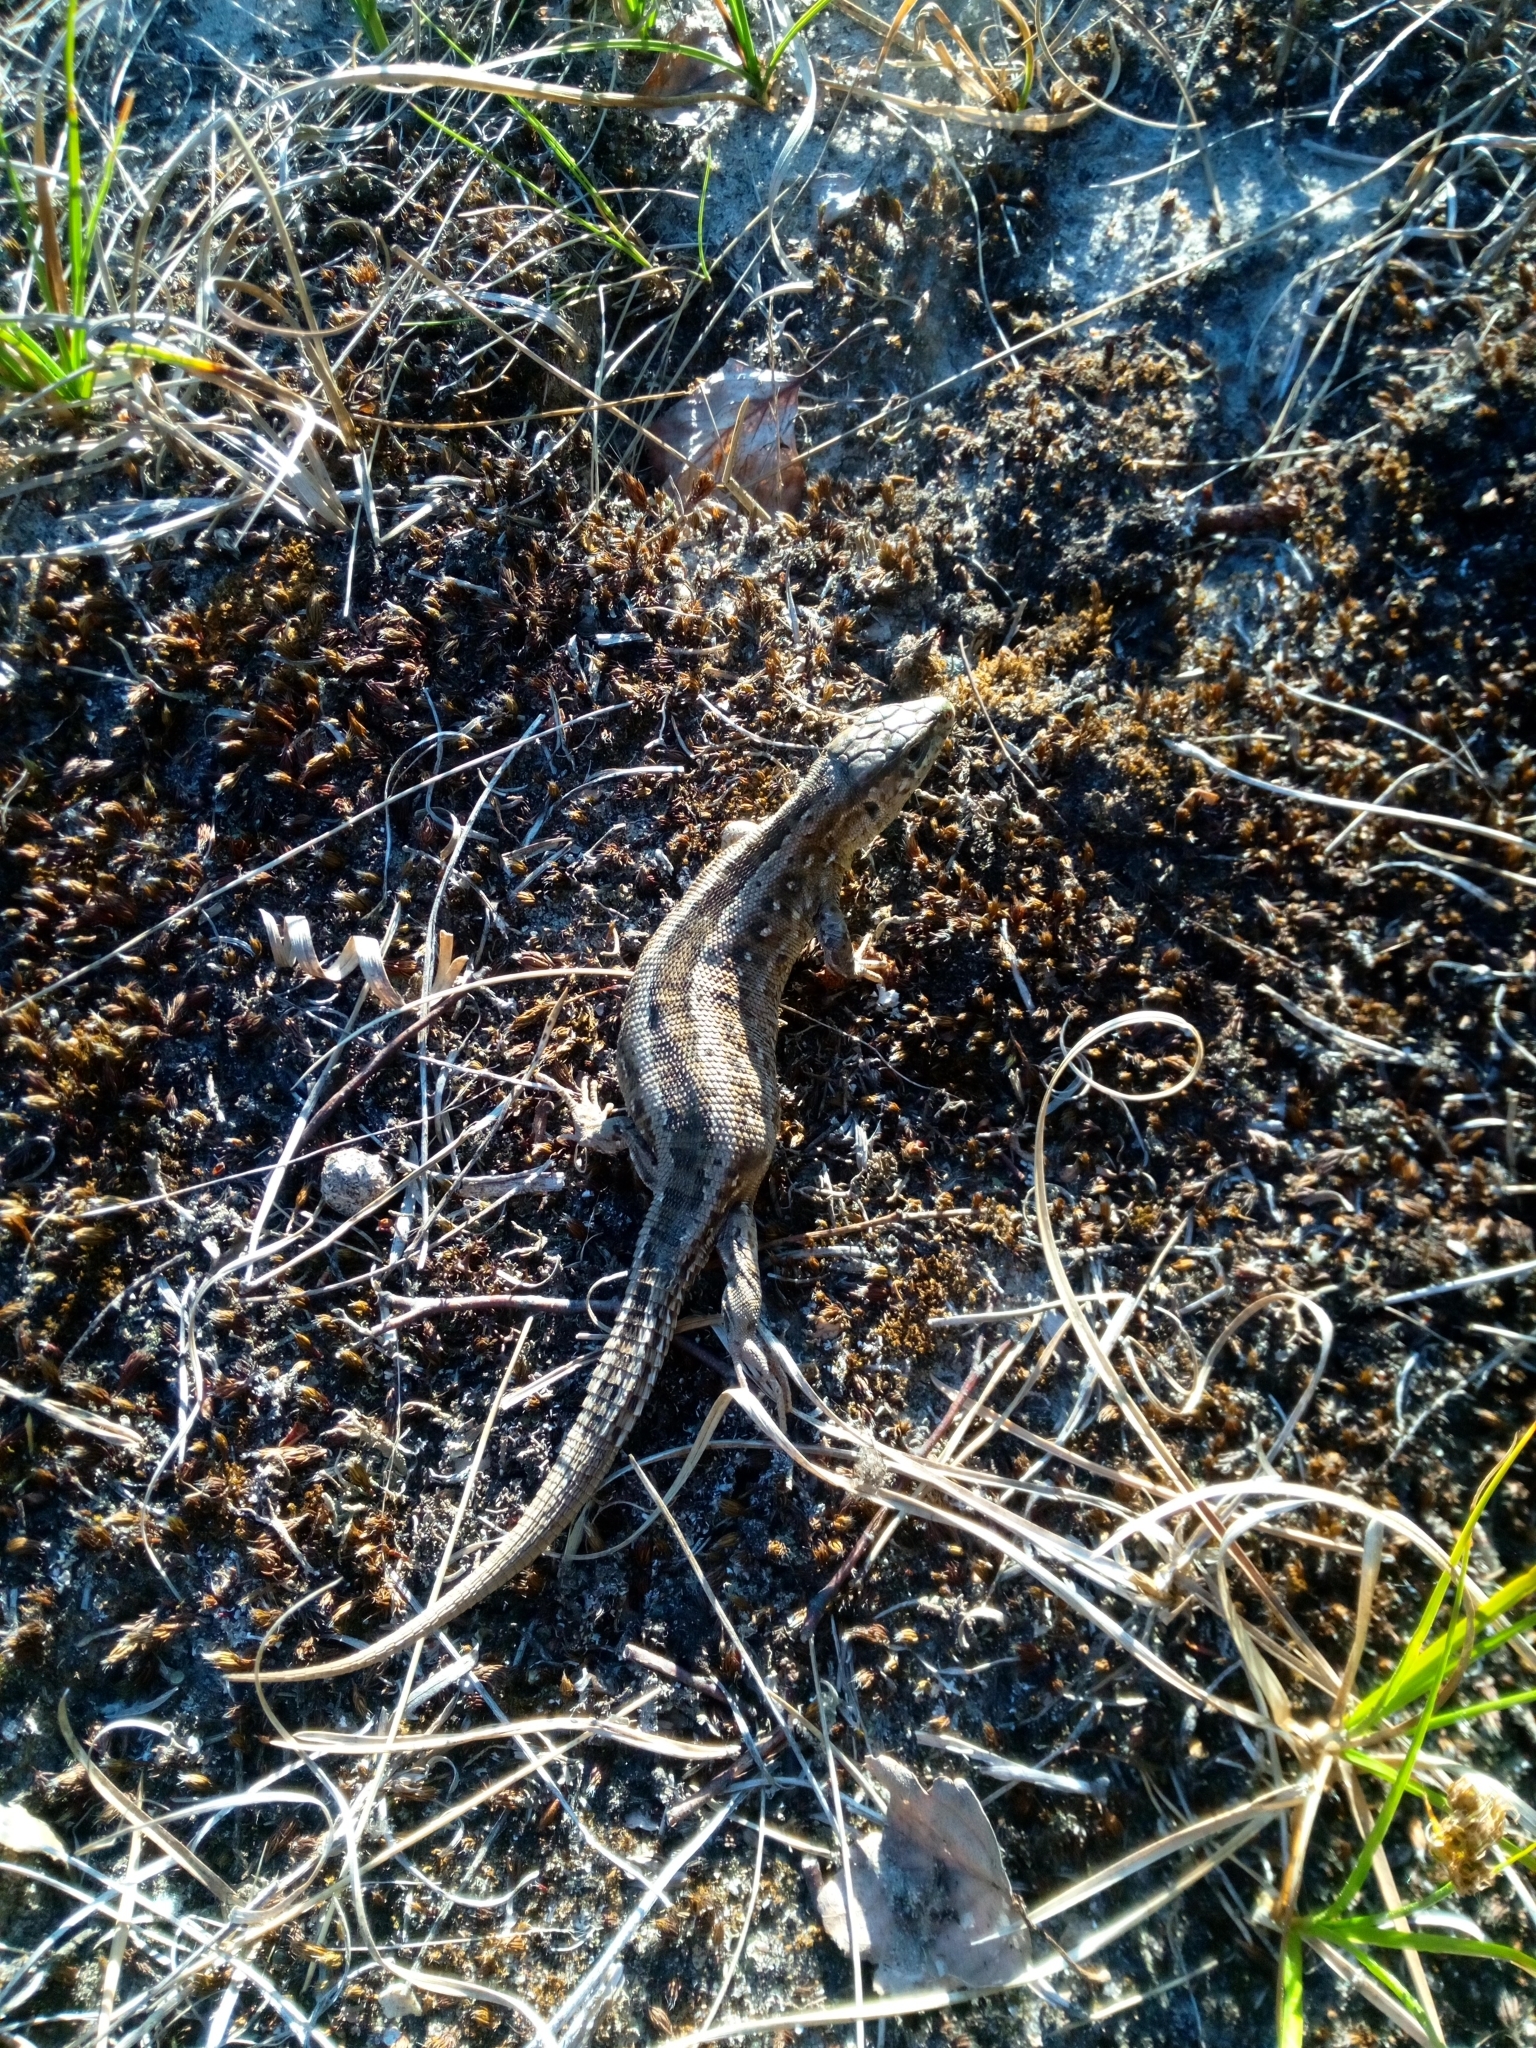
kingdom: Animalia
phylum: Chordata
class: Squamata
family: Lacertidae
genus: Lacerta
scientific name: Lacerta agilis
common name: Sand lizard
